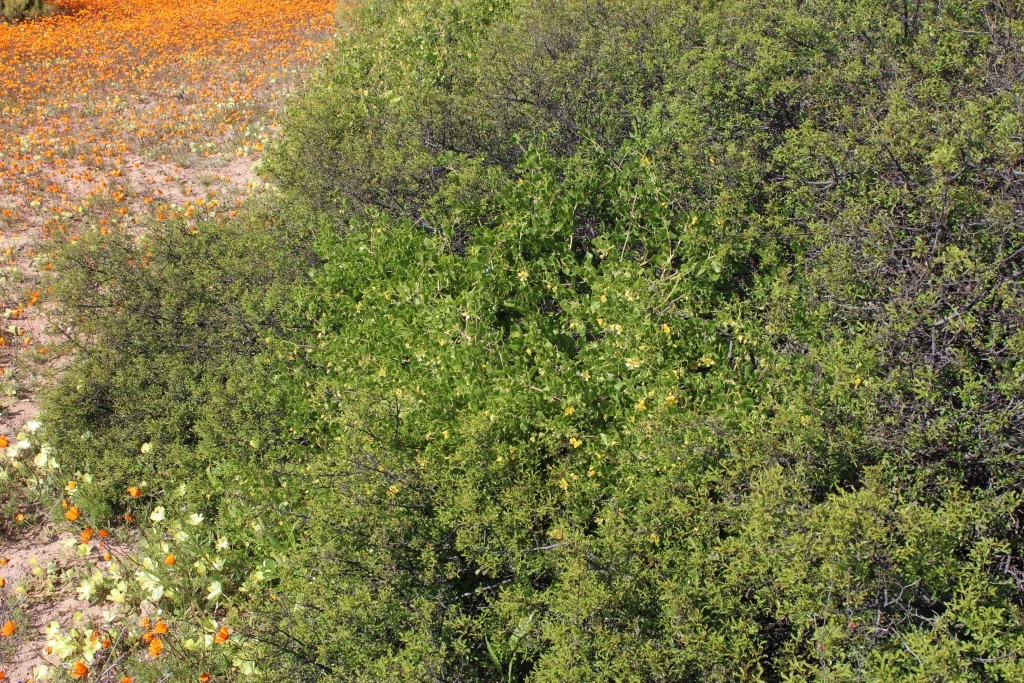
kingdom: Plantae
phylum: Tracheophyta
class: Magnoliopsida
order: Zygophyllales
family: Zygophyllaceae
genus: Roepera
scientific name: Roepera foetida
